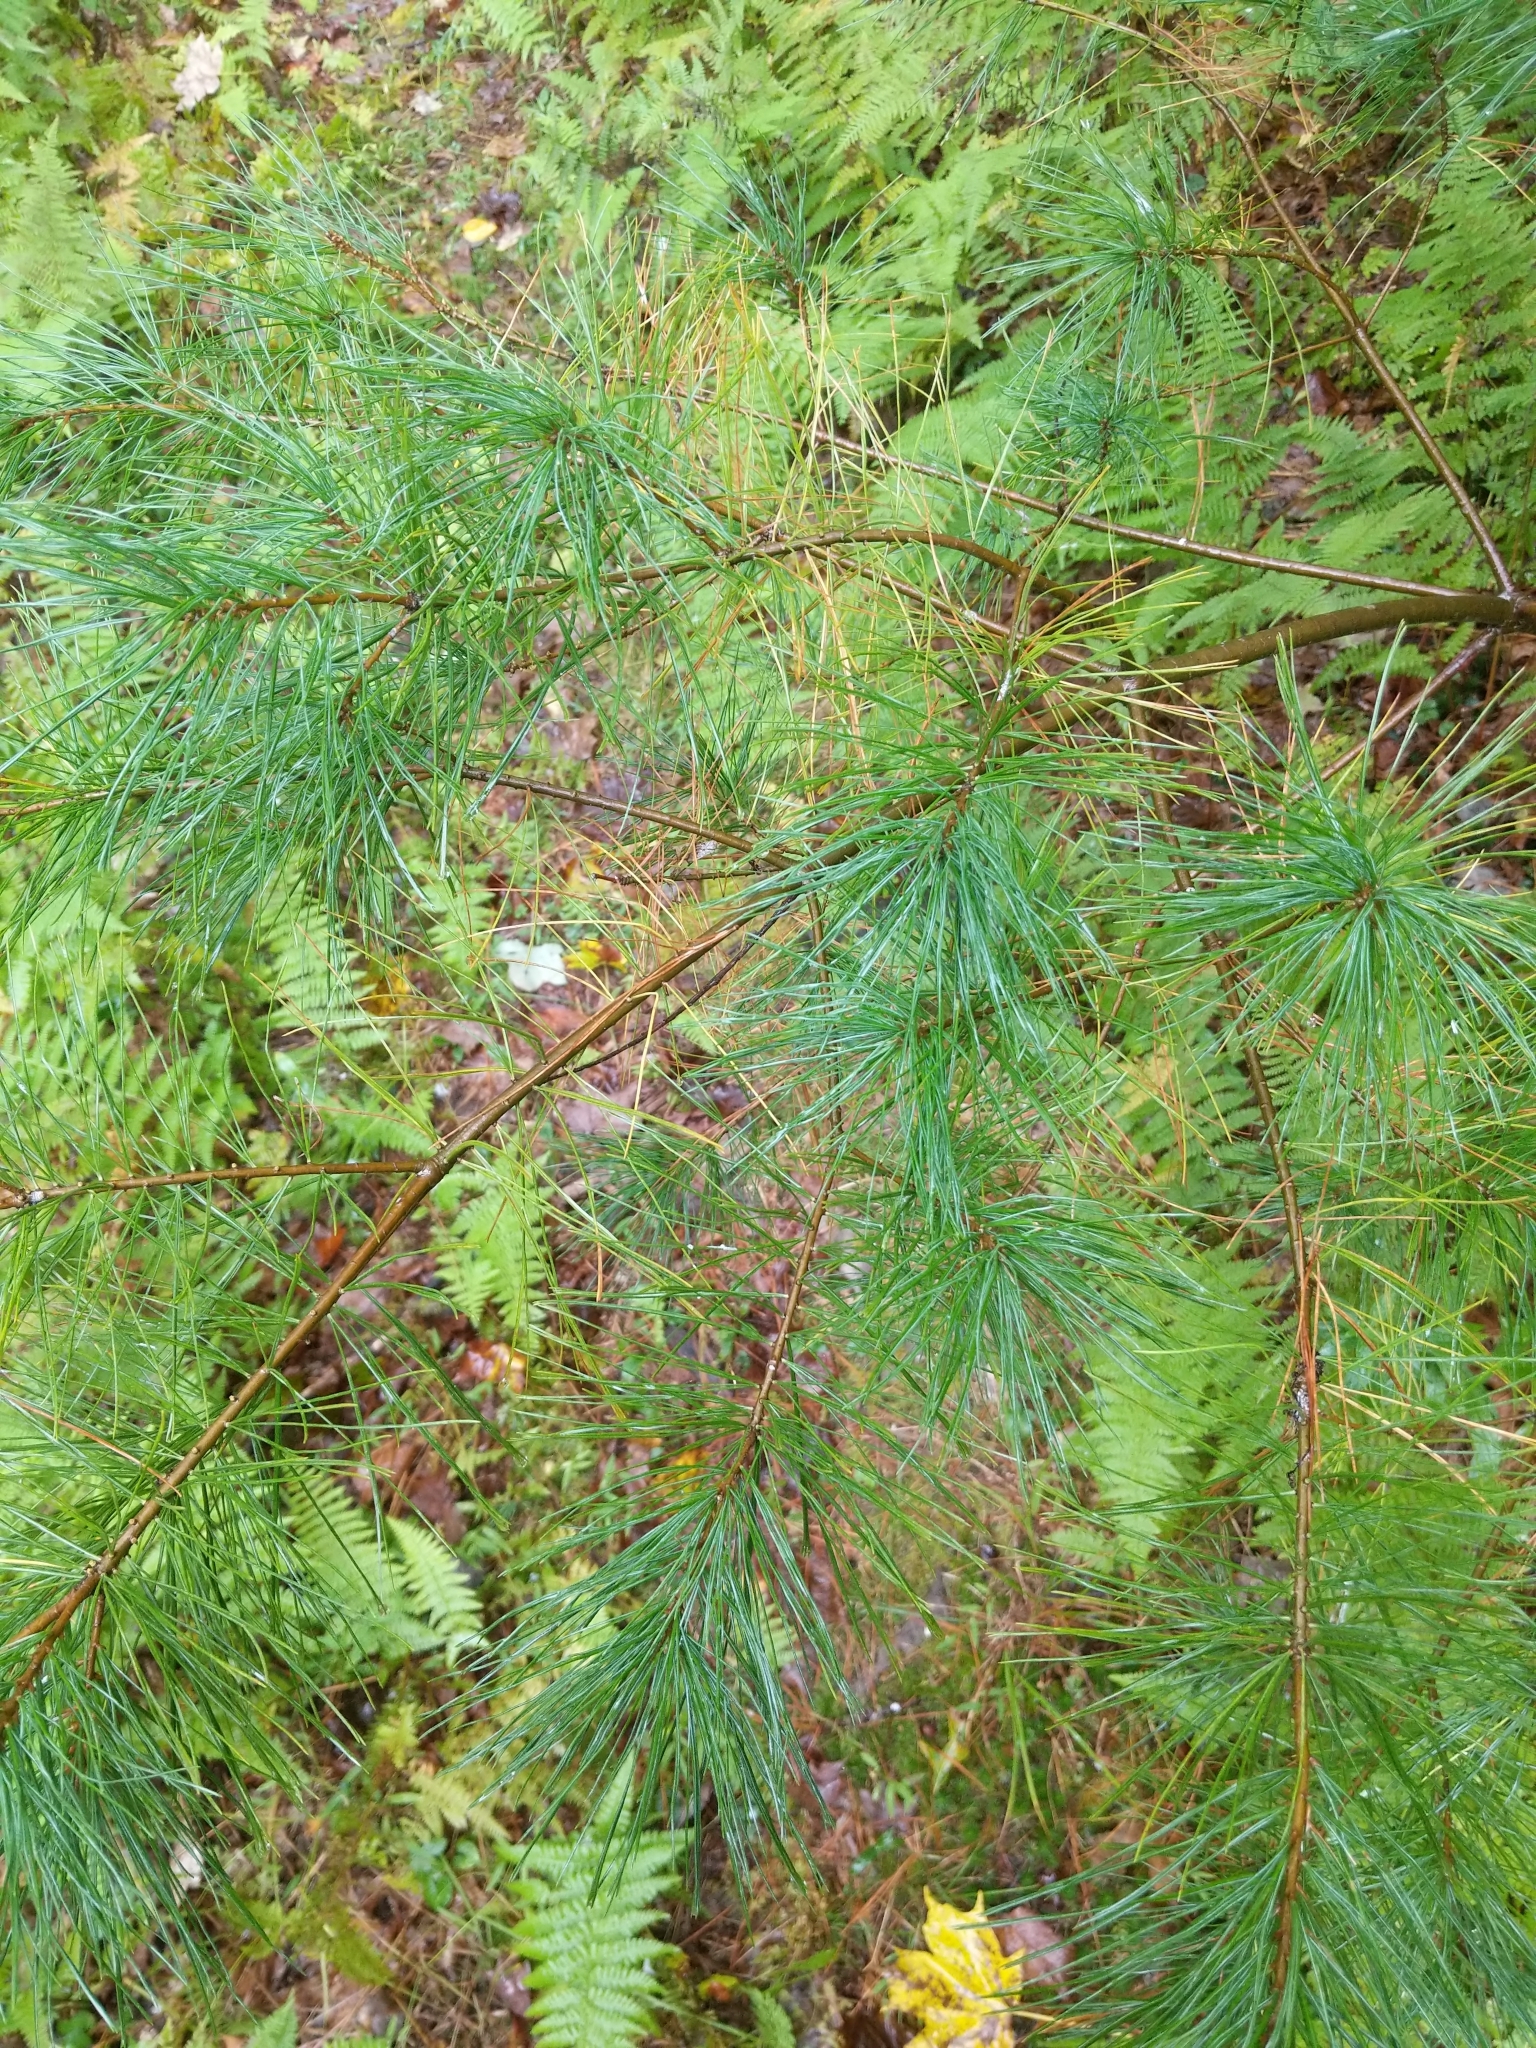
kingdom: Plantae
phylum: Tracheophyta
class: Pinopsida
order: Pinales
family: Pinaceae
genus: Pinus
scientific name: Pinus strobus
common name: Weymouth pine
